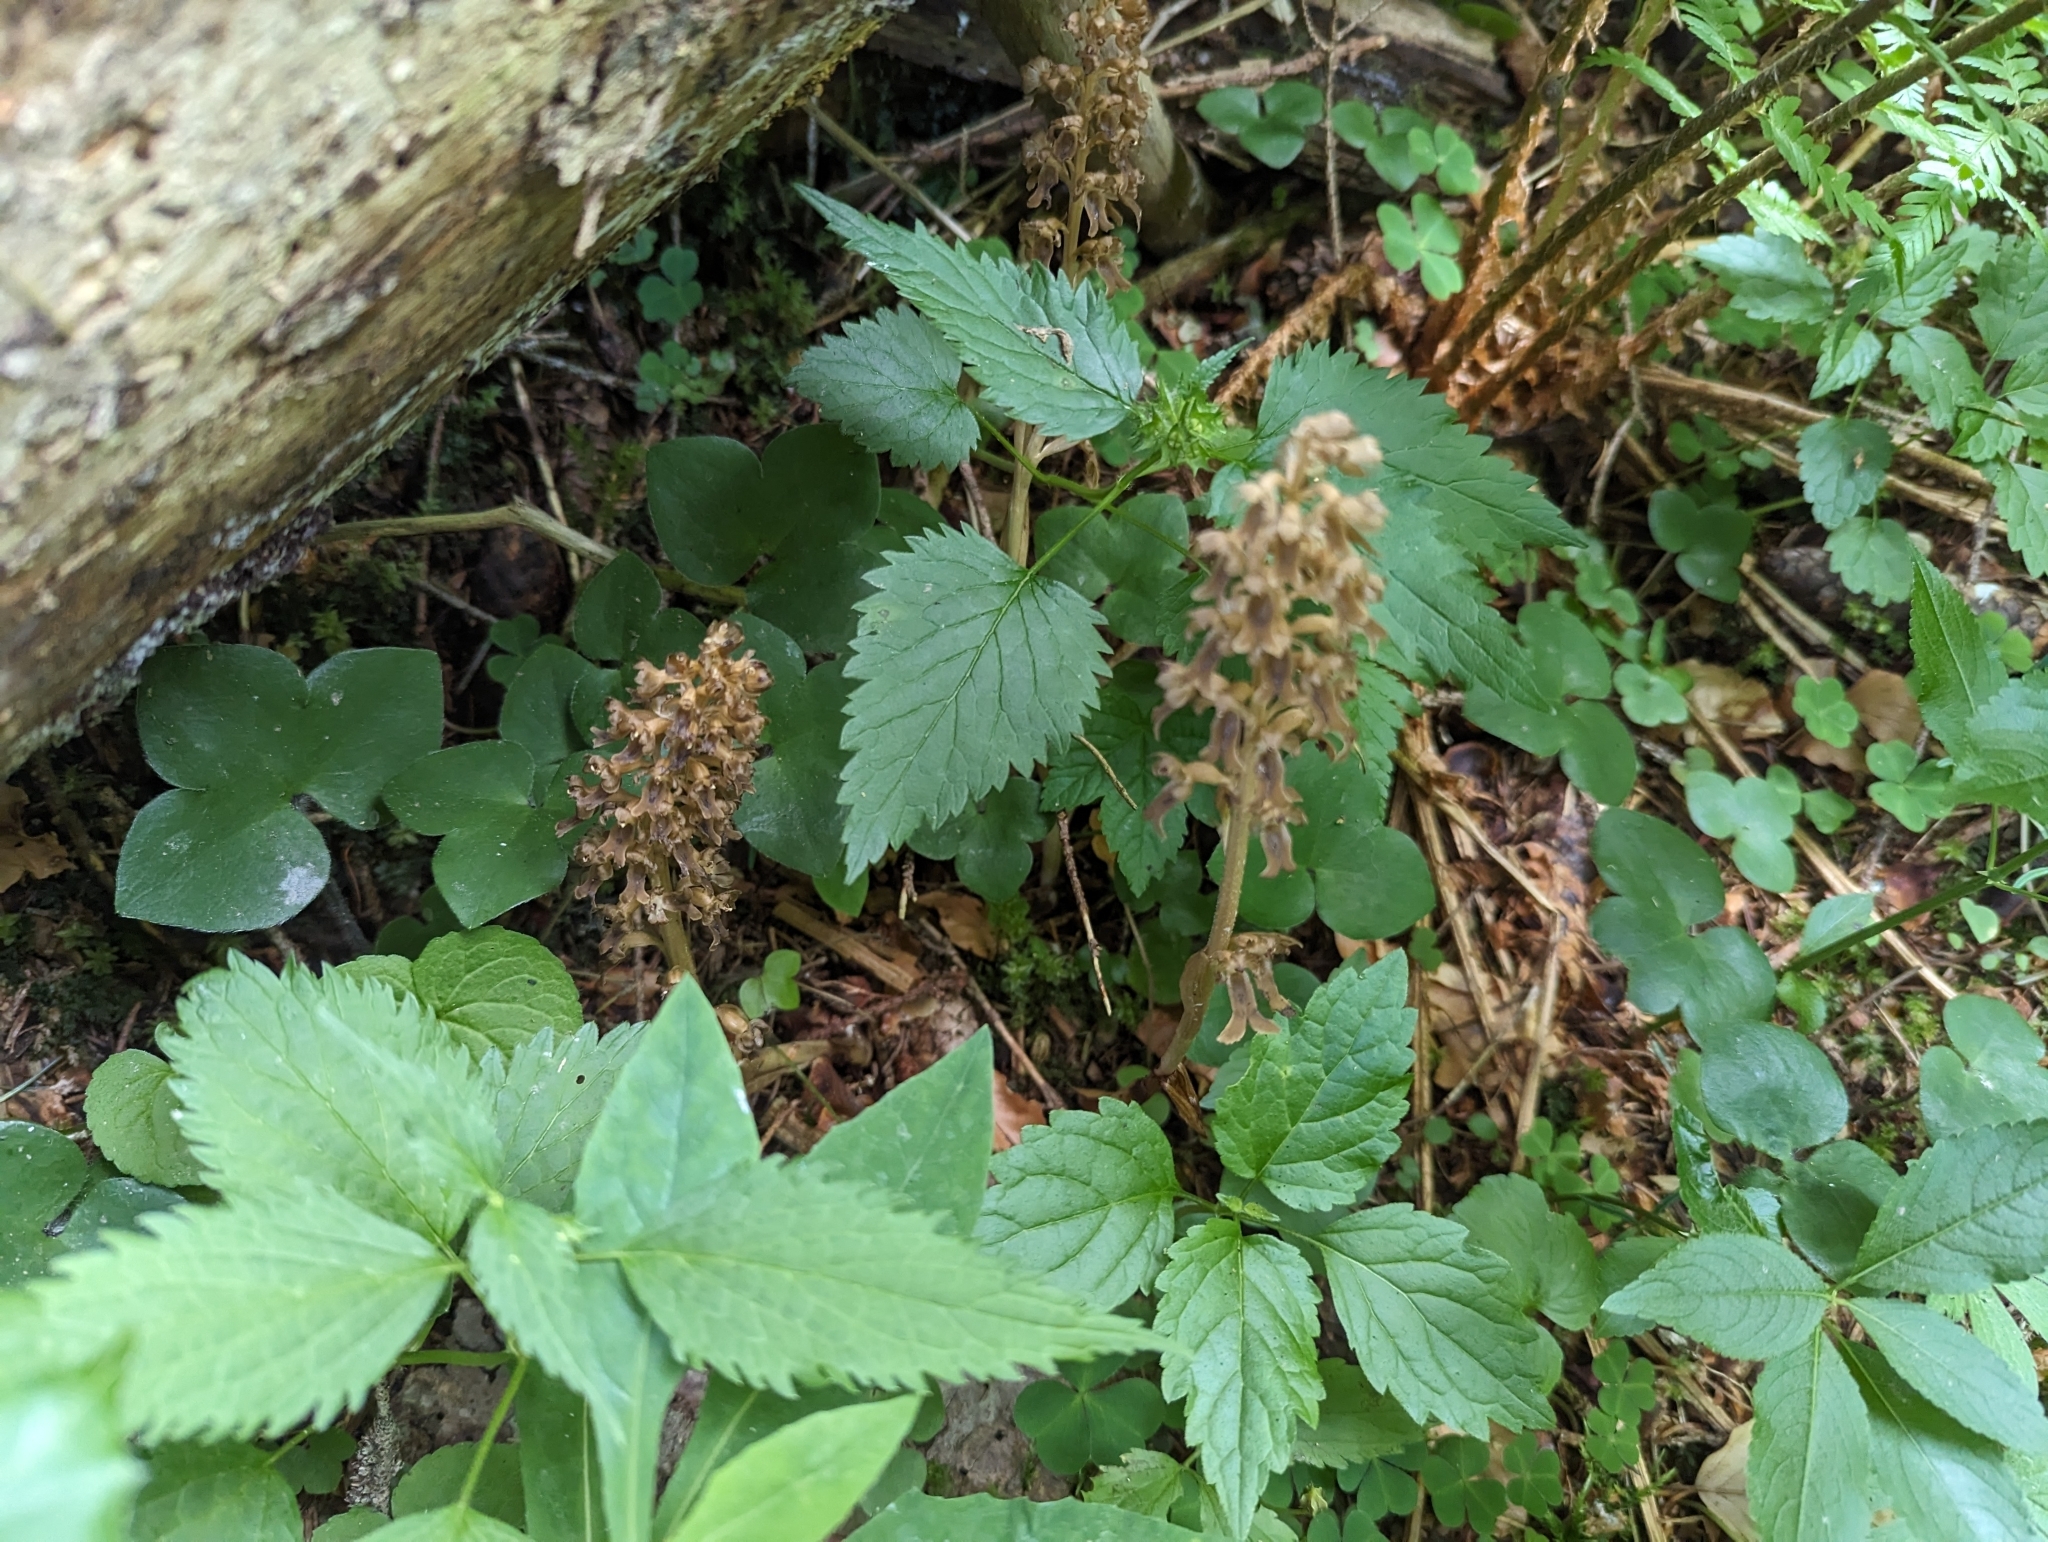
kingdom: Plantae
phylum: Tracheophyta
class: Liliopsida
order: Asparagales
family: Orchidaceae
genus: Neottia
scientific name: Neottia nidus-avis
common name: Bird's-nest orchid
